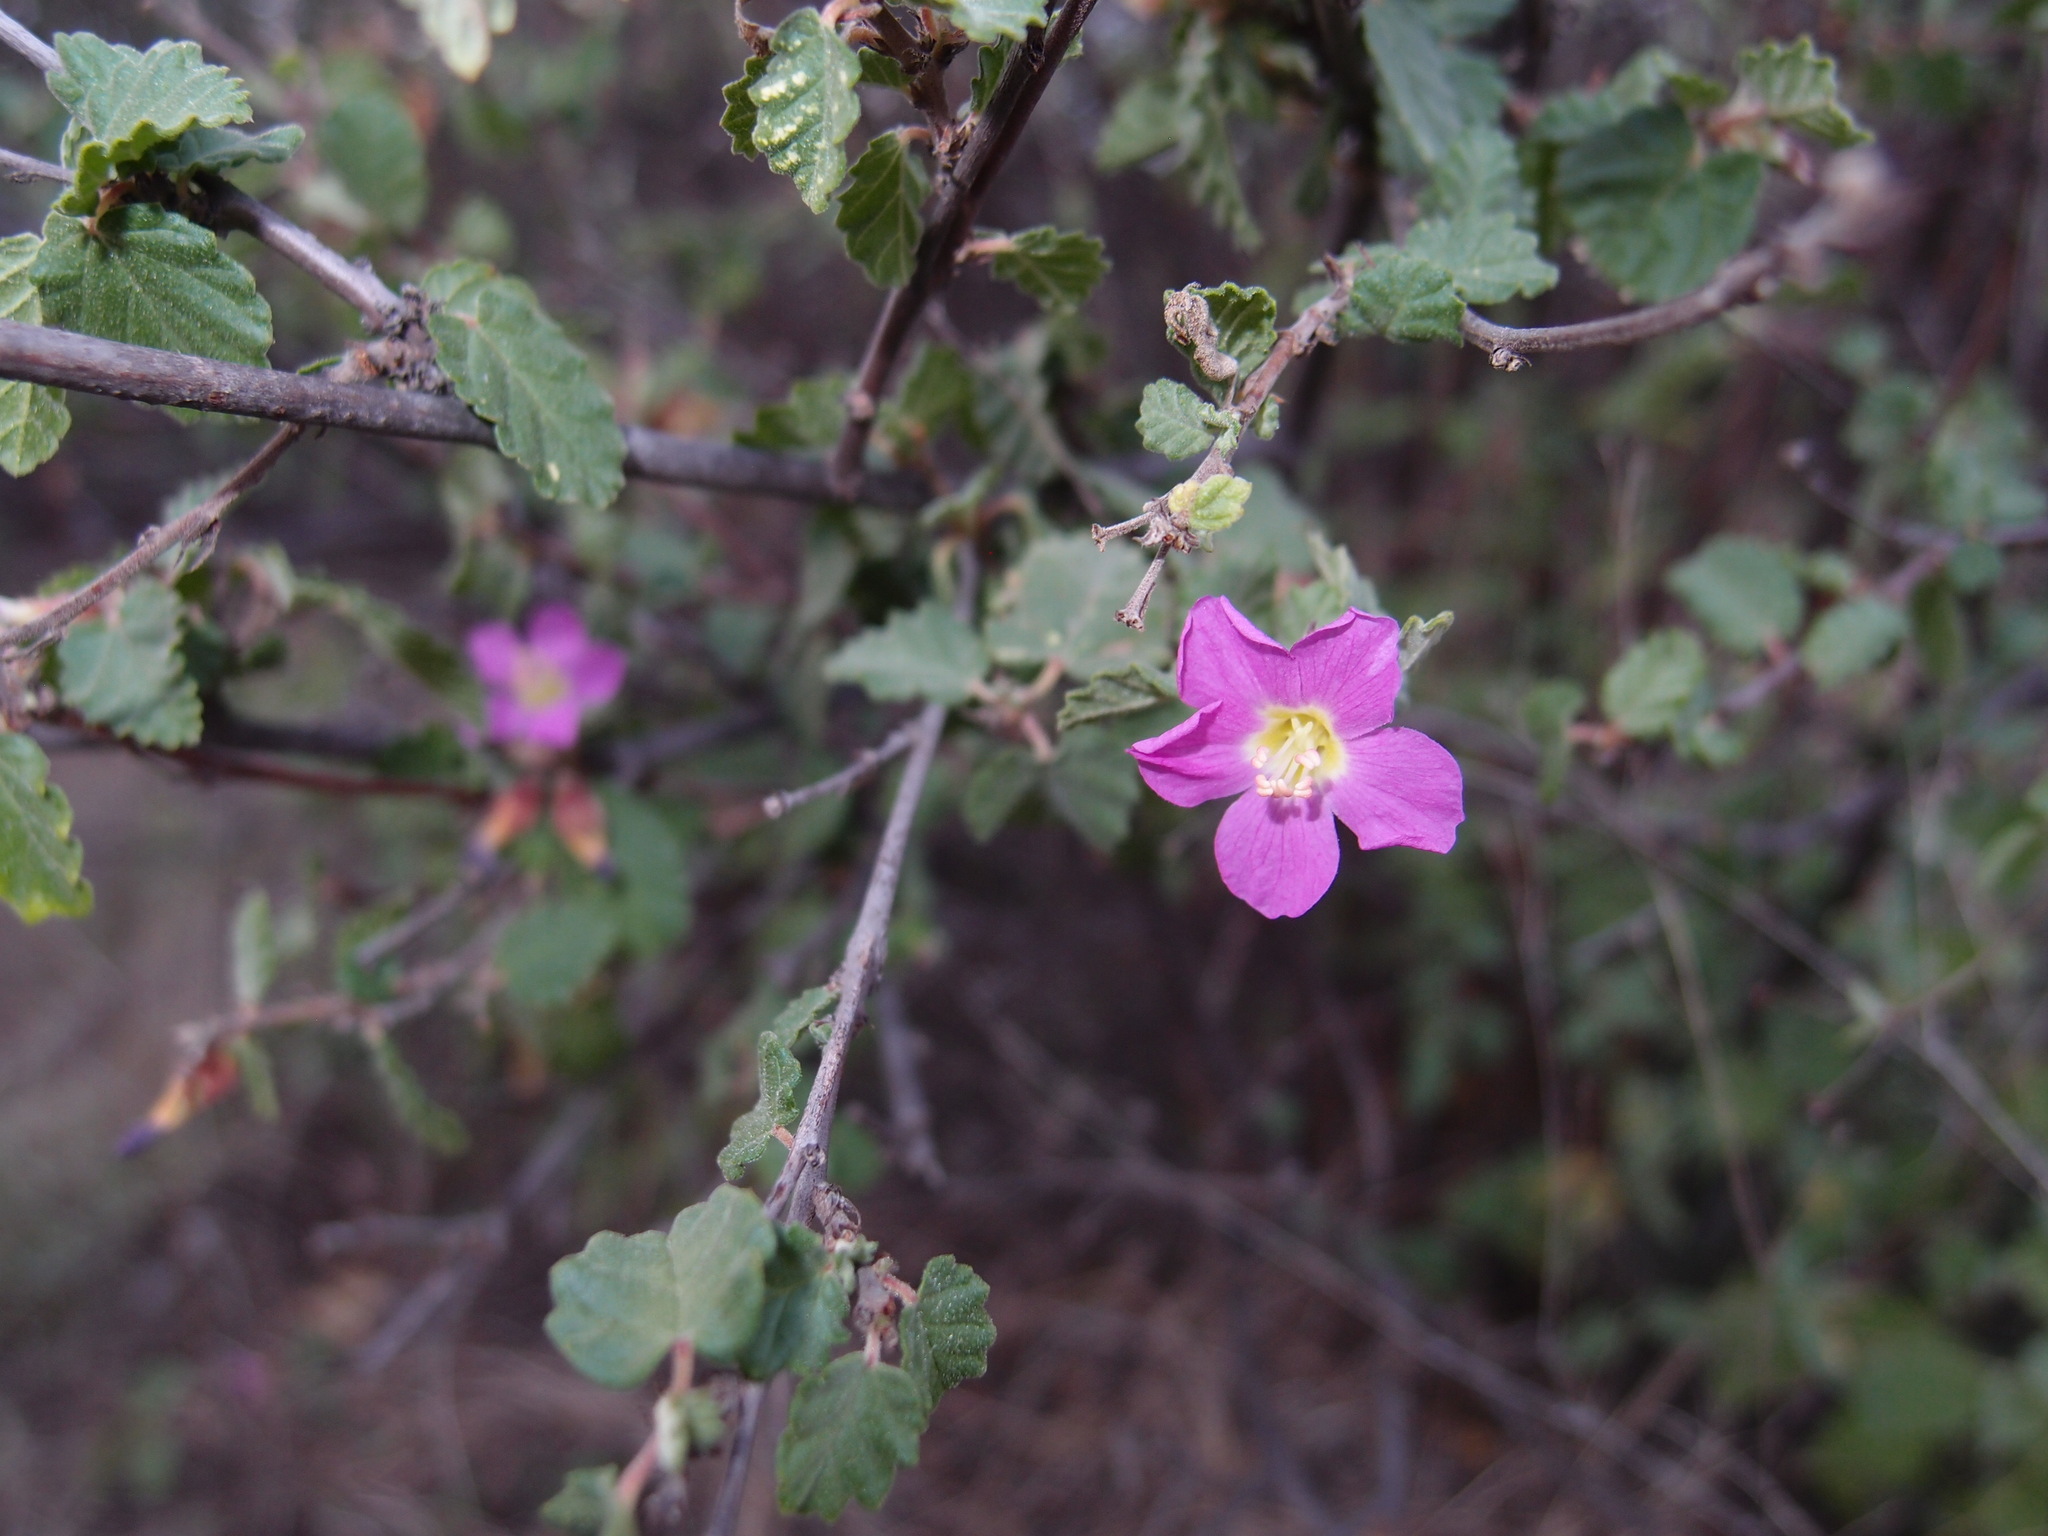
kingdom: Plantae
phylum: Tracheophyta
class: Magnoliopsida
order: Malvales
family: Malvaceae
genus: Melochia
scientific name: Melochia tomentosa
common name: Black torch
